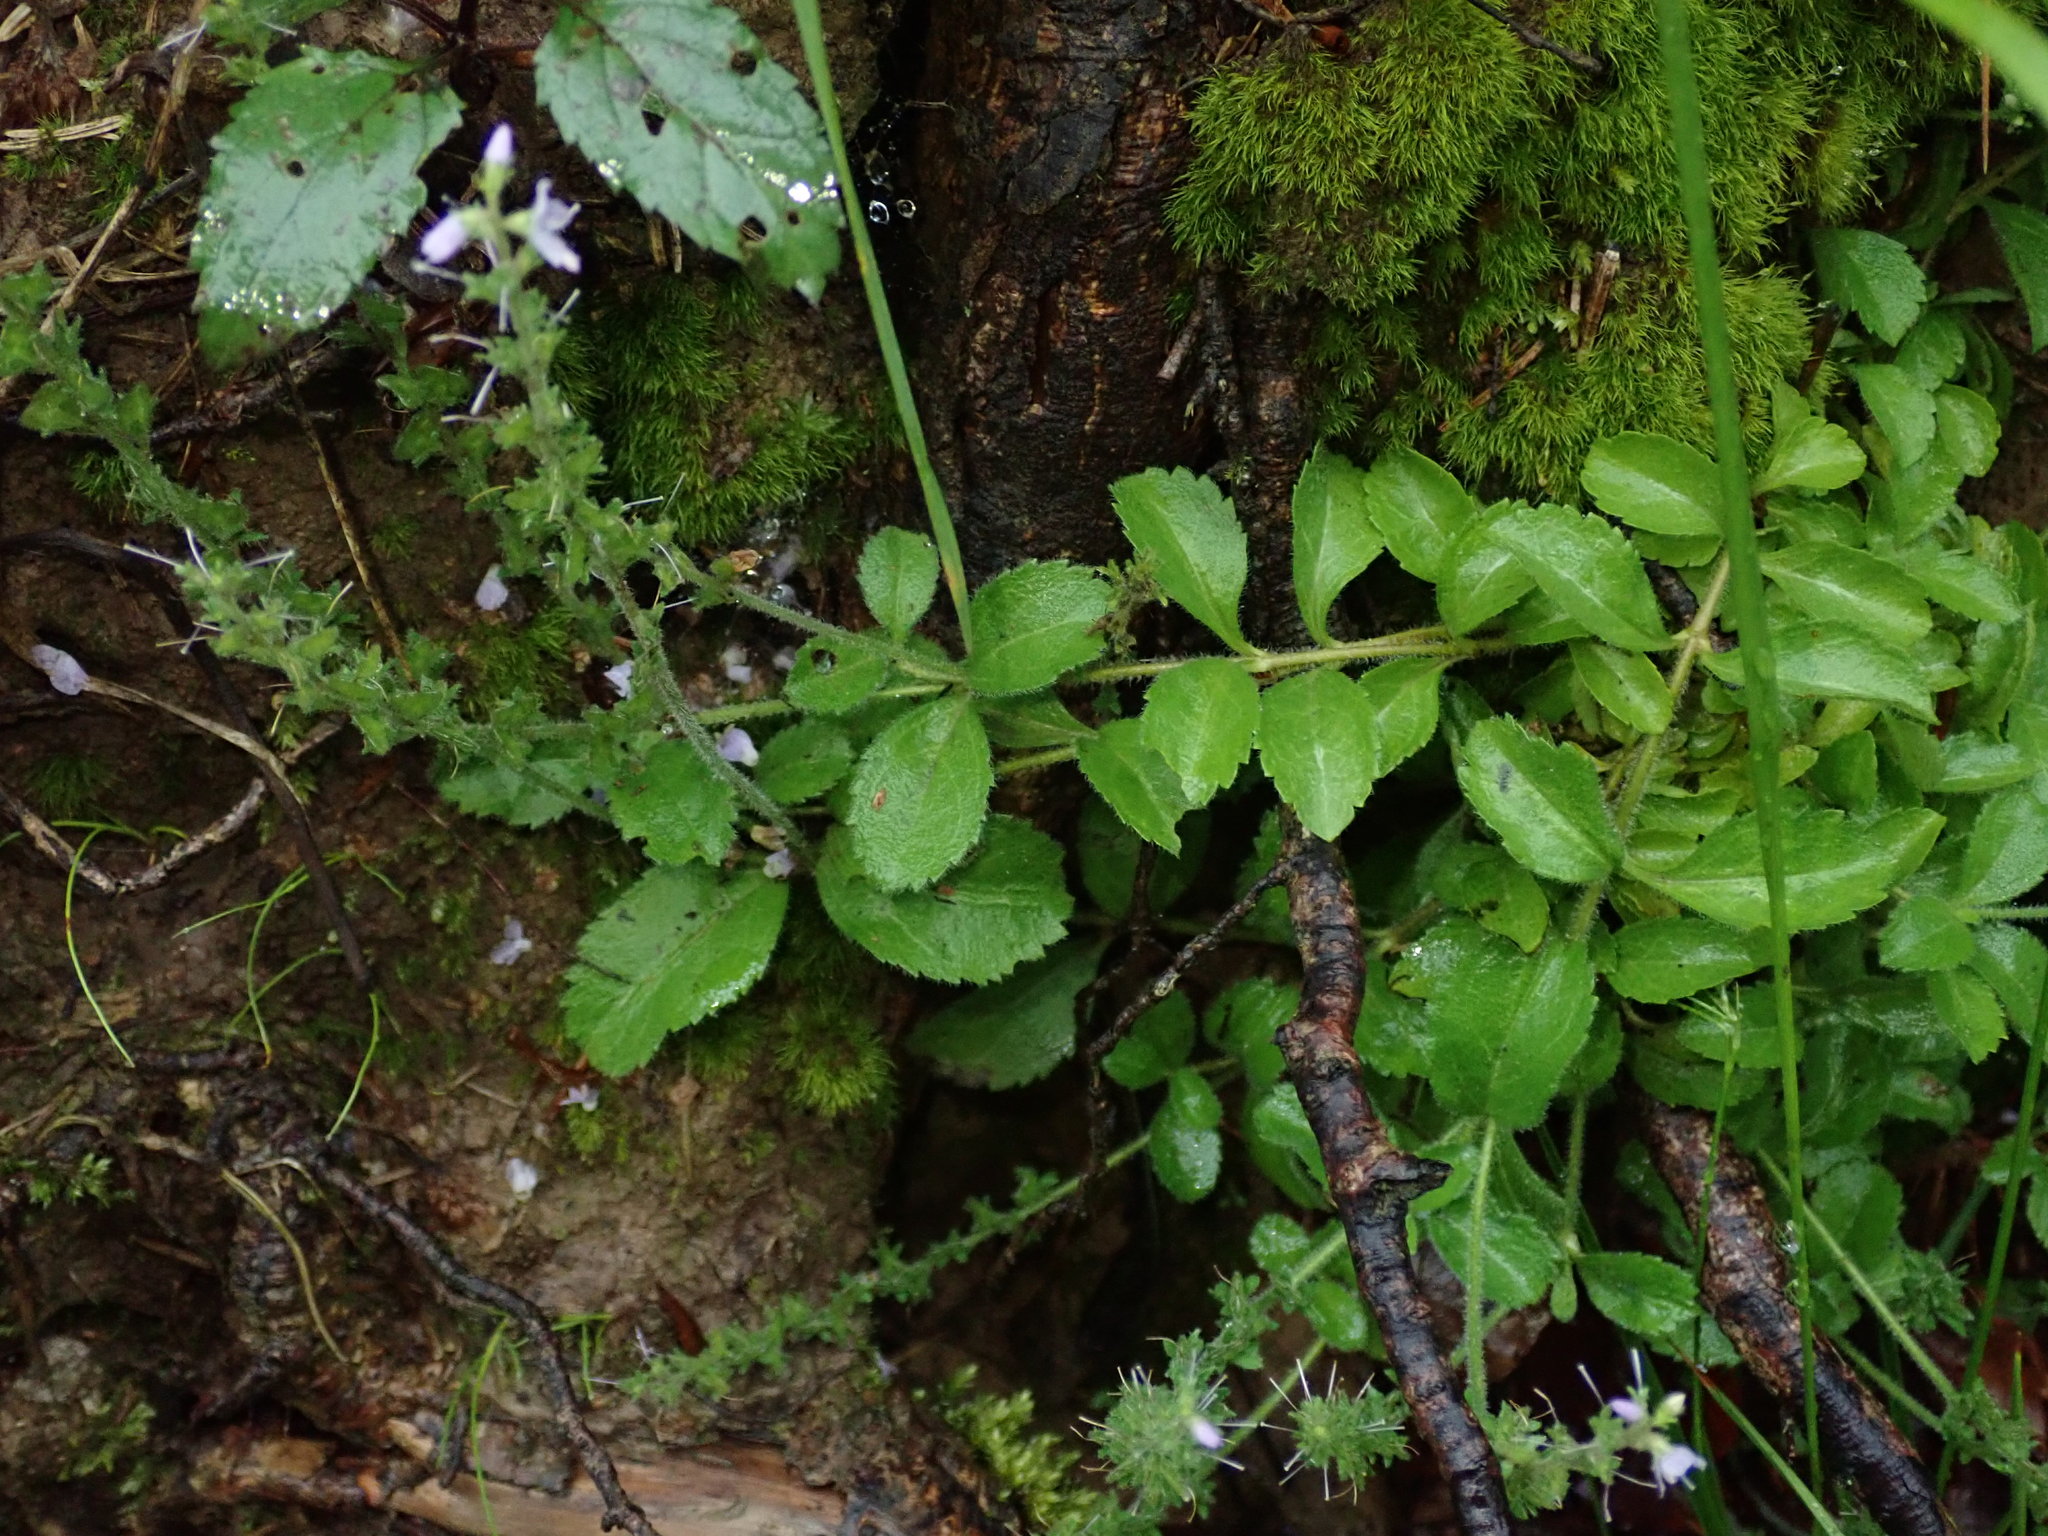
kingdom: Plantae
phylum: Tracheophyta
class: Magnoliopsida
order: Lamiales
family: Plantaginaceae
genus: Veronica
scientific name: Veronica officinalis
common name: Common speedwell
